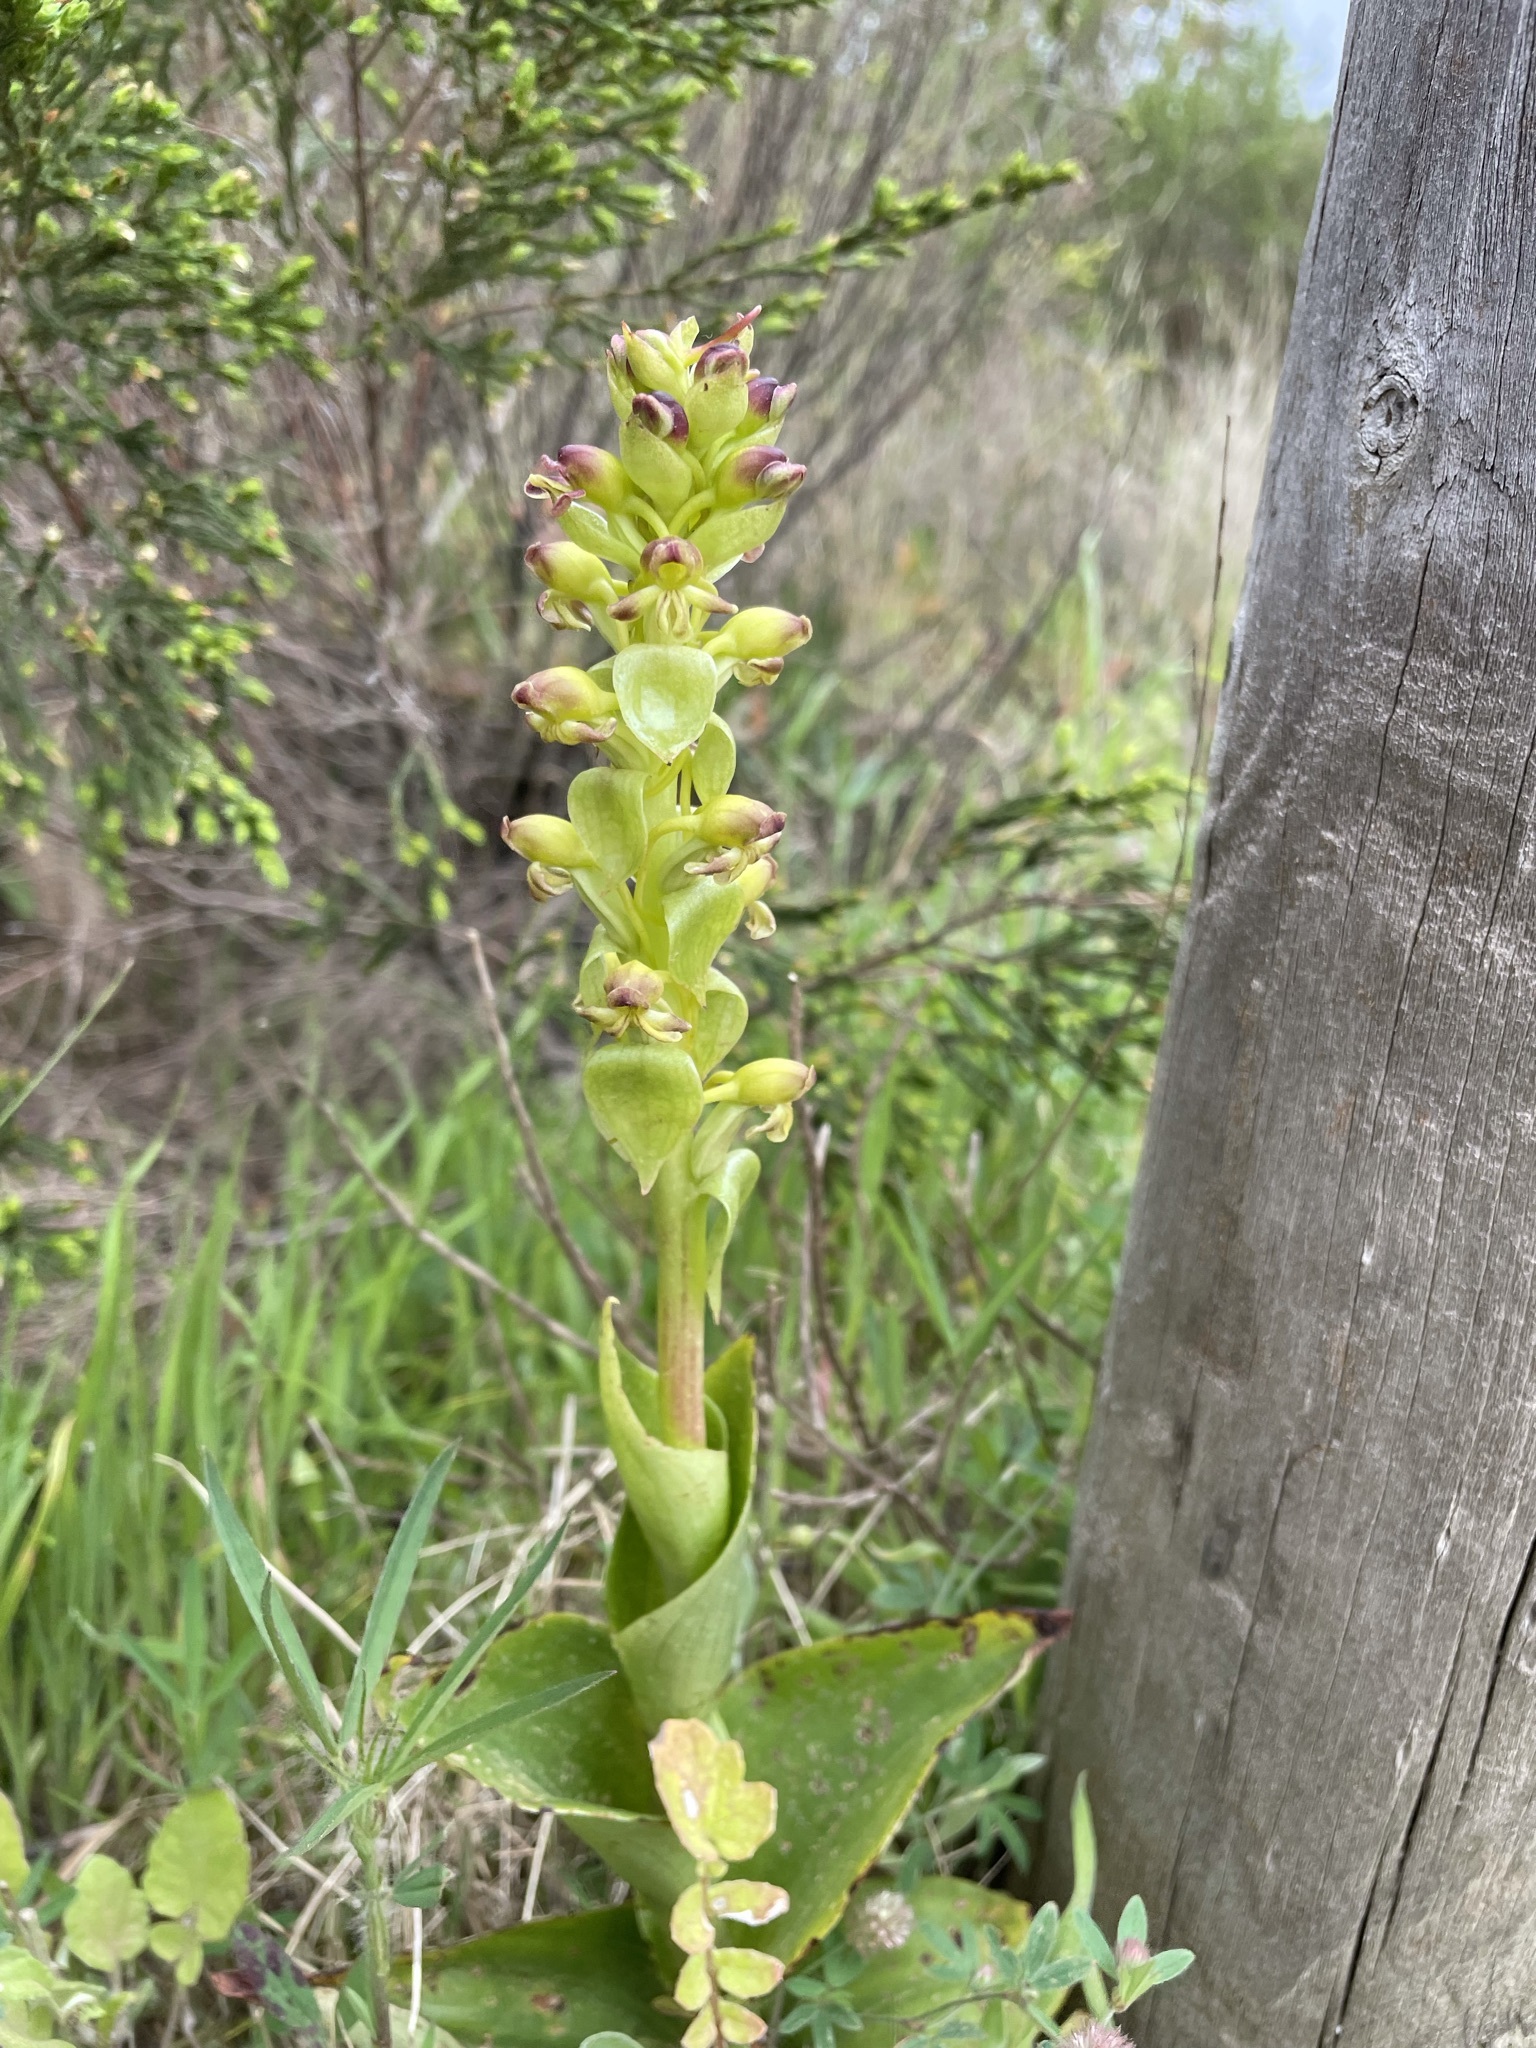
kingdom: Plantae
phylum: Tracheophyta
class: Liliopsida
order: Asparagales
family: Orchidaceae
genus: Satyrium
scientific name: Satyrium odorum
